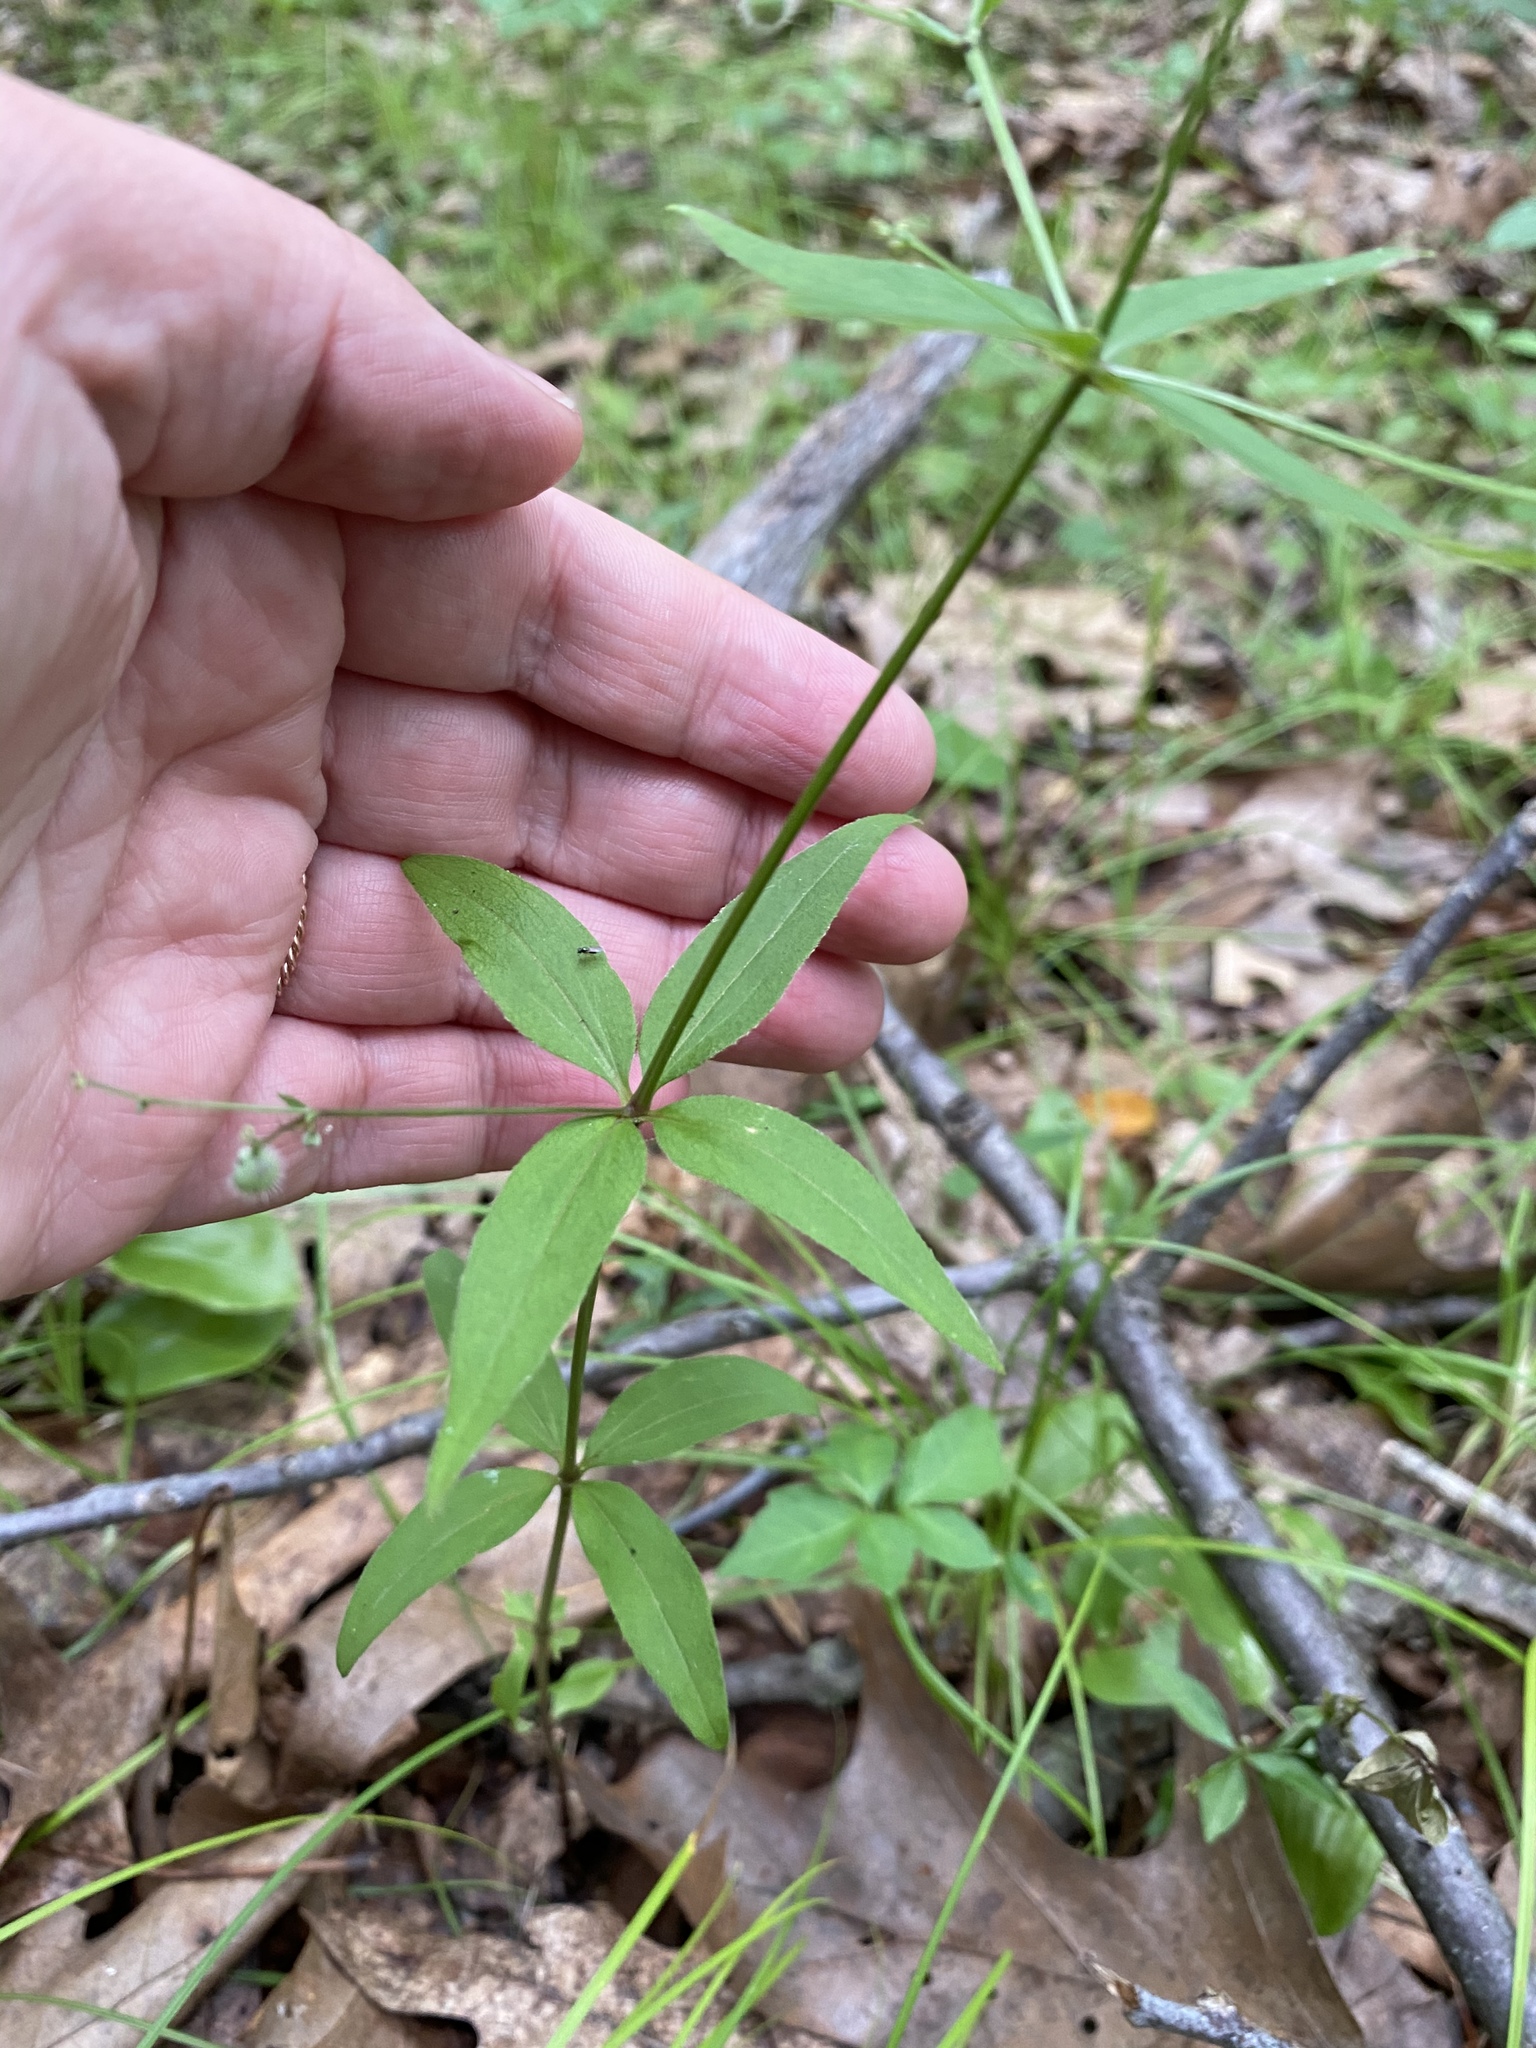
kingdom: Plantae
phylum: Tracheophyta
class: Magnoliopsida
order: Gentianales
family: Rubiaceae
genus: Galium
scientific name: Galium lanceolatum
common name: Lance-leaved wild licorice
